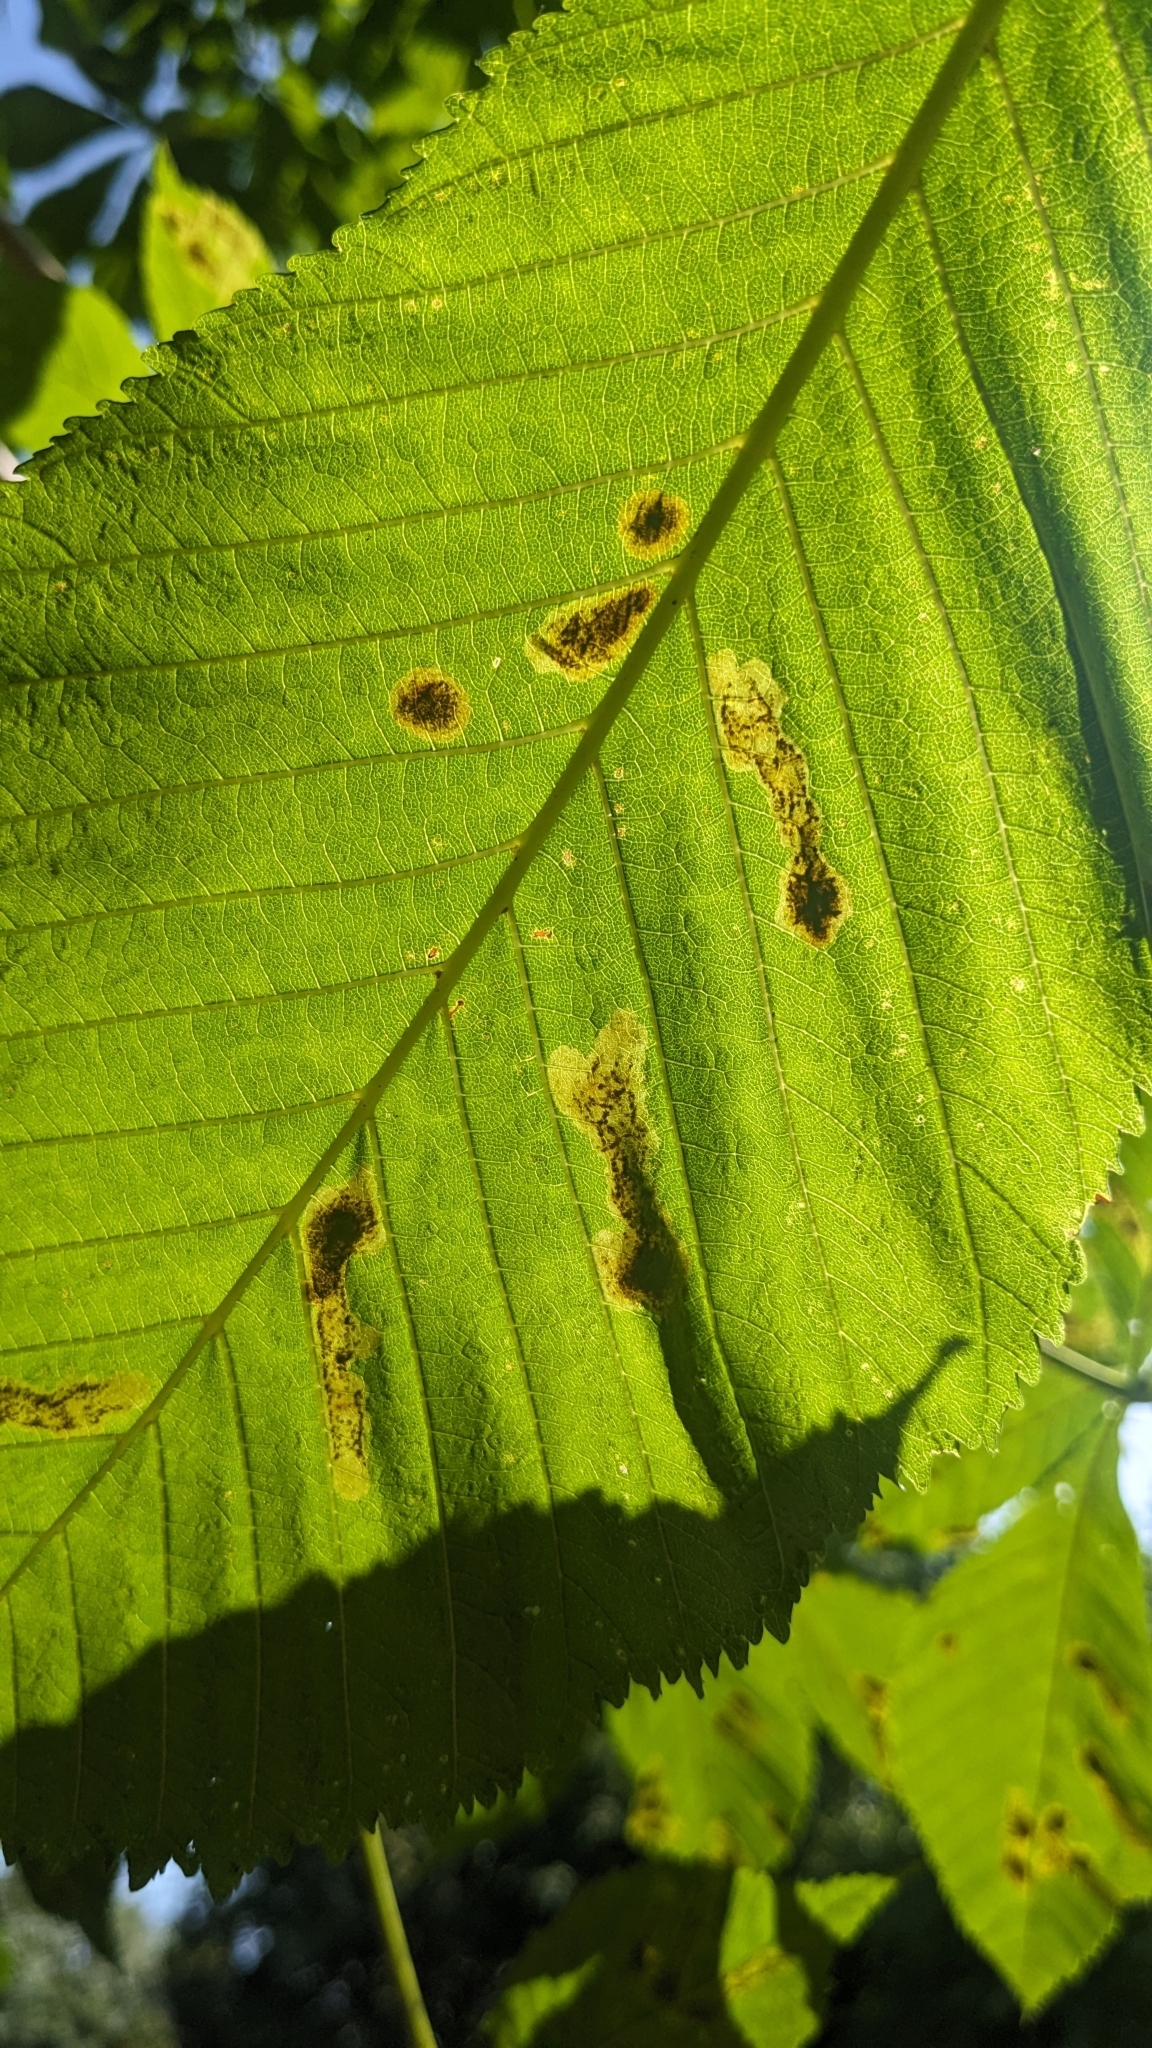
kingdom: Animalia
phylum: Arthropoda
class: Insecta
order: Lepidoptera
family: Gracillariidae
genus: Cameraria
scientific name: Cameraria ohridella
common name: Horse-chestnut leaf-miner
